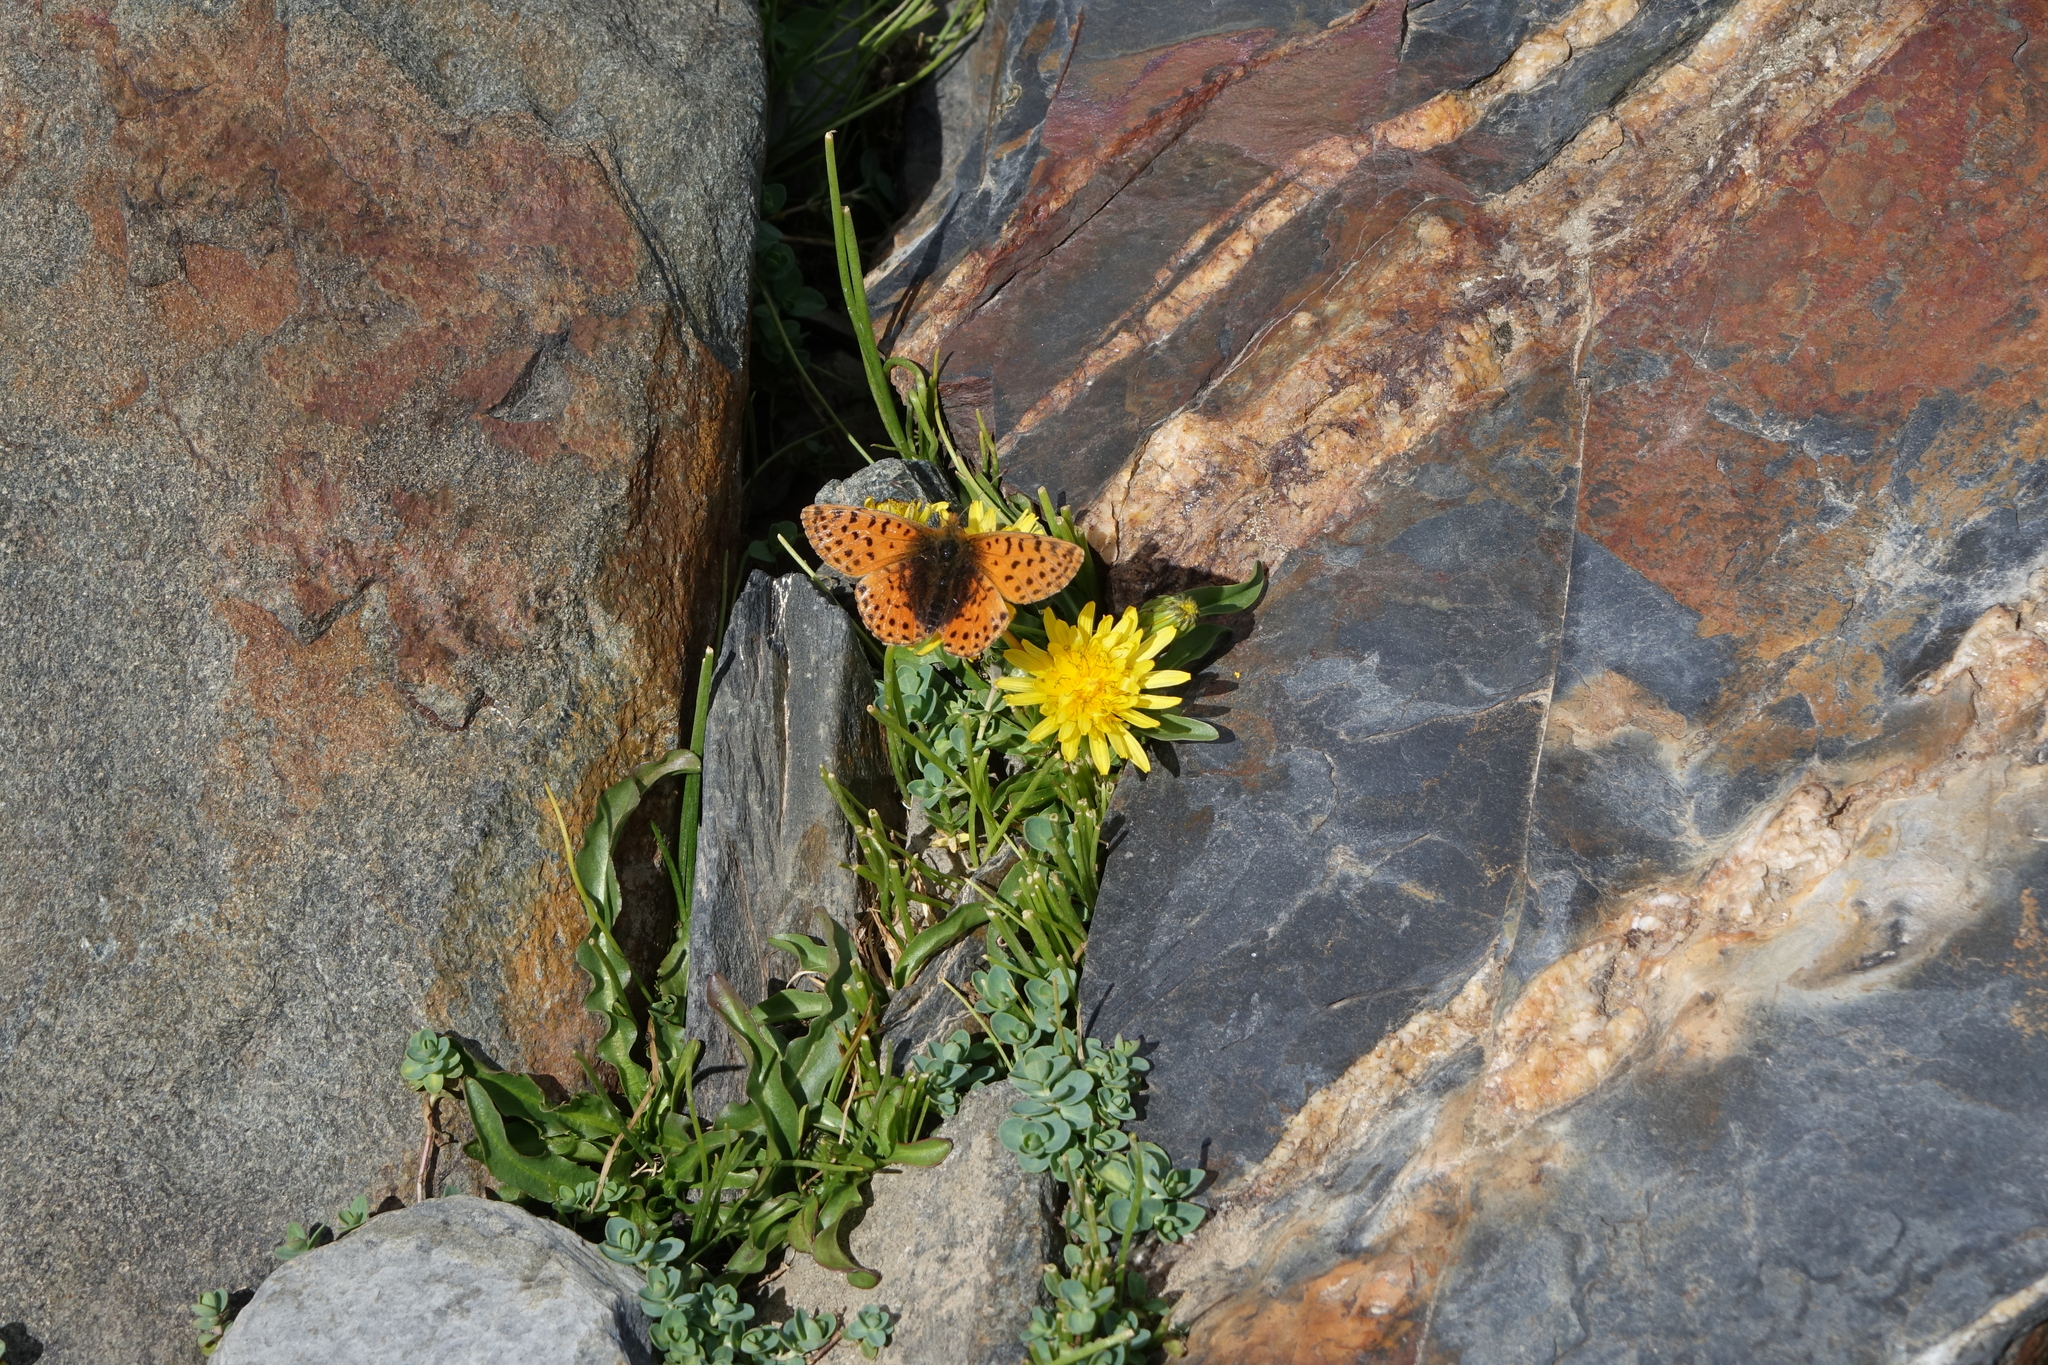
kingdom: Animalia
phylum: Arthropoda
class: Insecta
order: Lepidoptera
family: Nymphalidae
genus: Boloria
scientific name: Boloria caucasica
